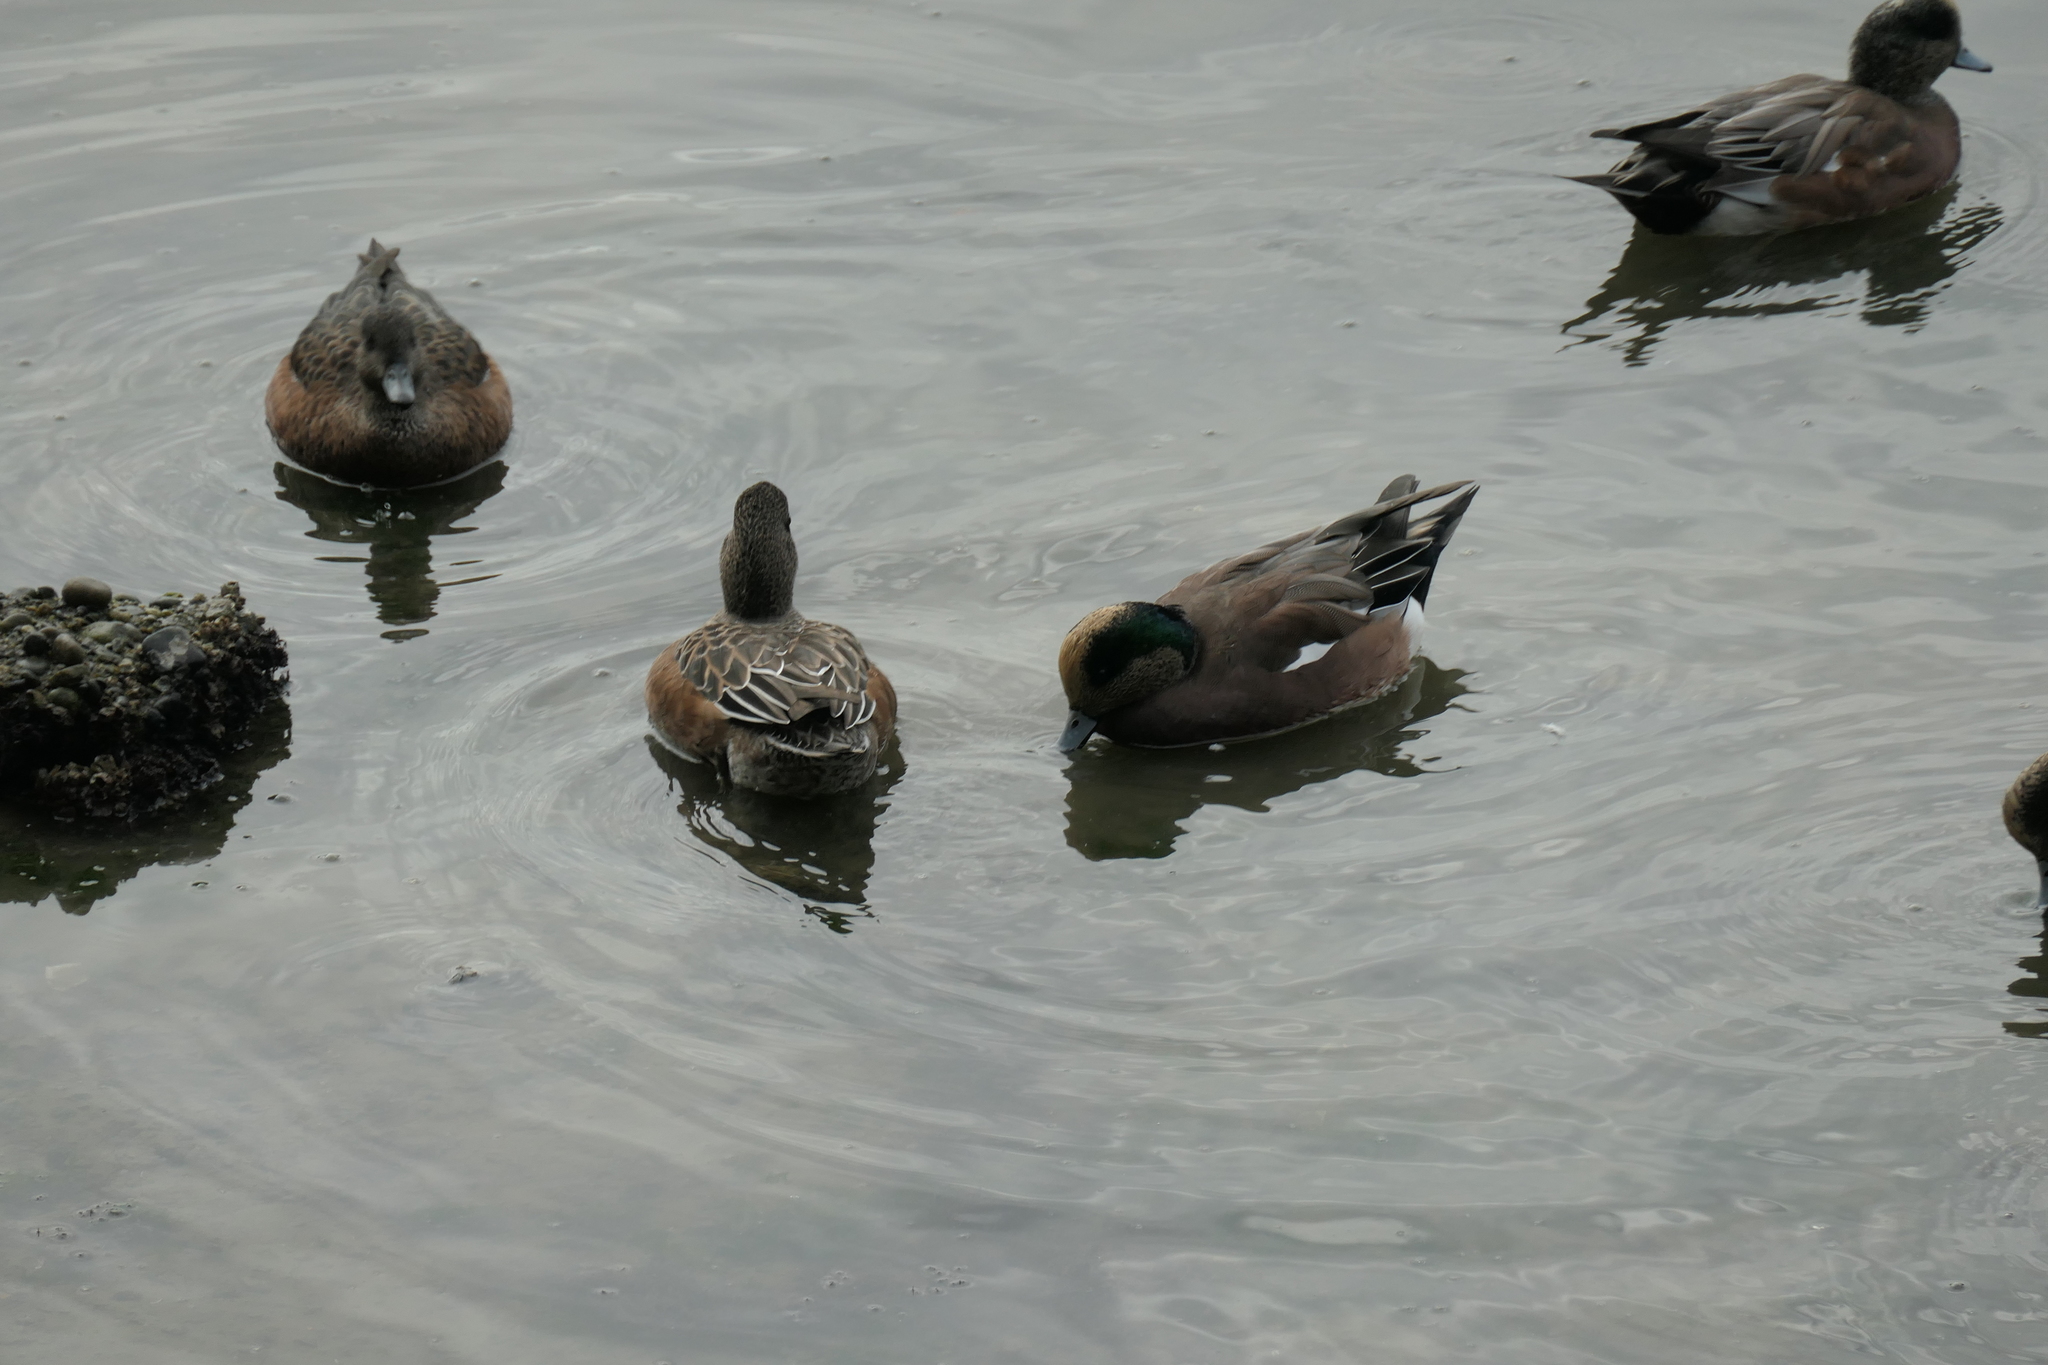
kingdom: Animalia
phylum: Chordata
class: Aves
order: Anseriformes
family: Anatidae
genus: Mareca
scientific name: Mareca americana
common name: American wigeon
